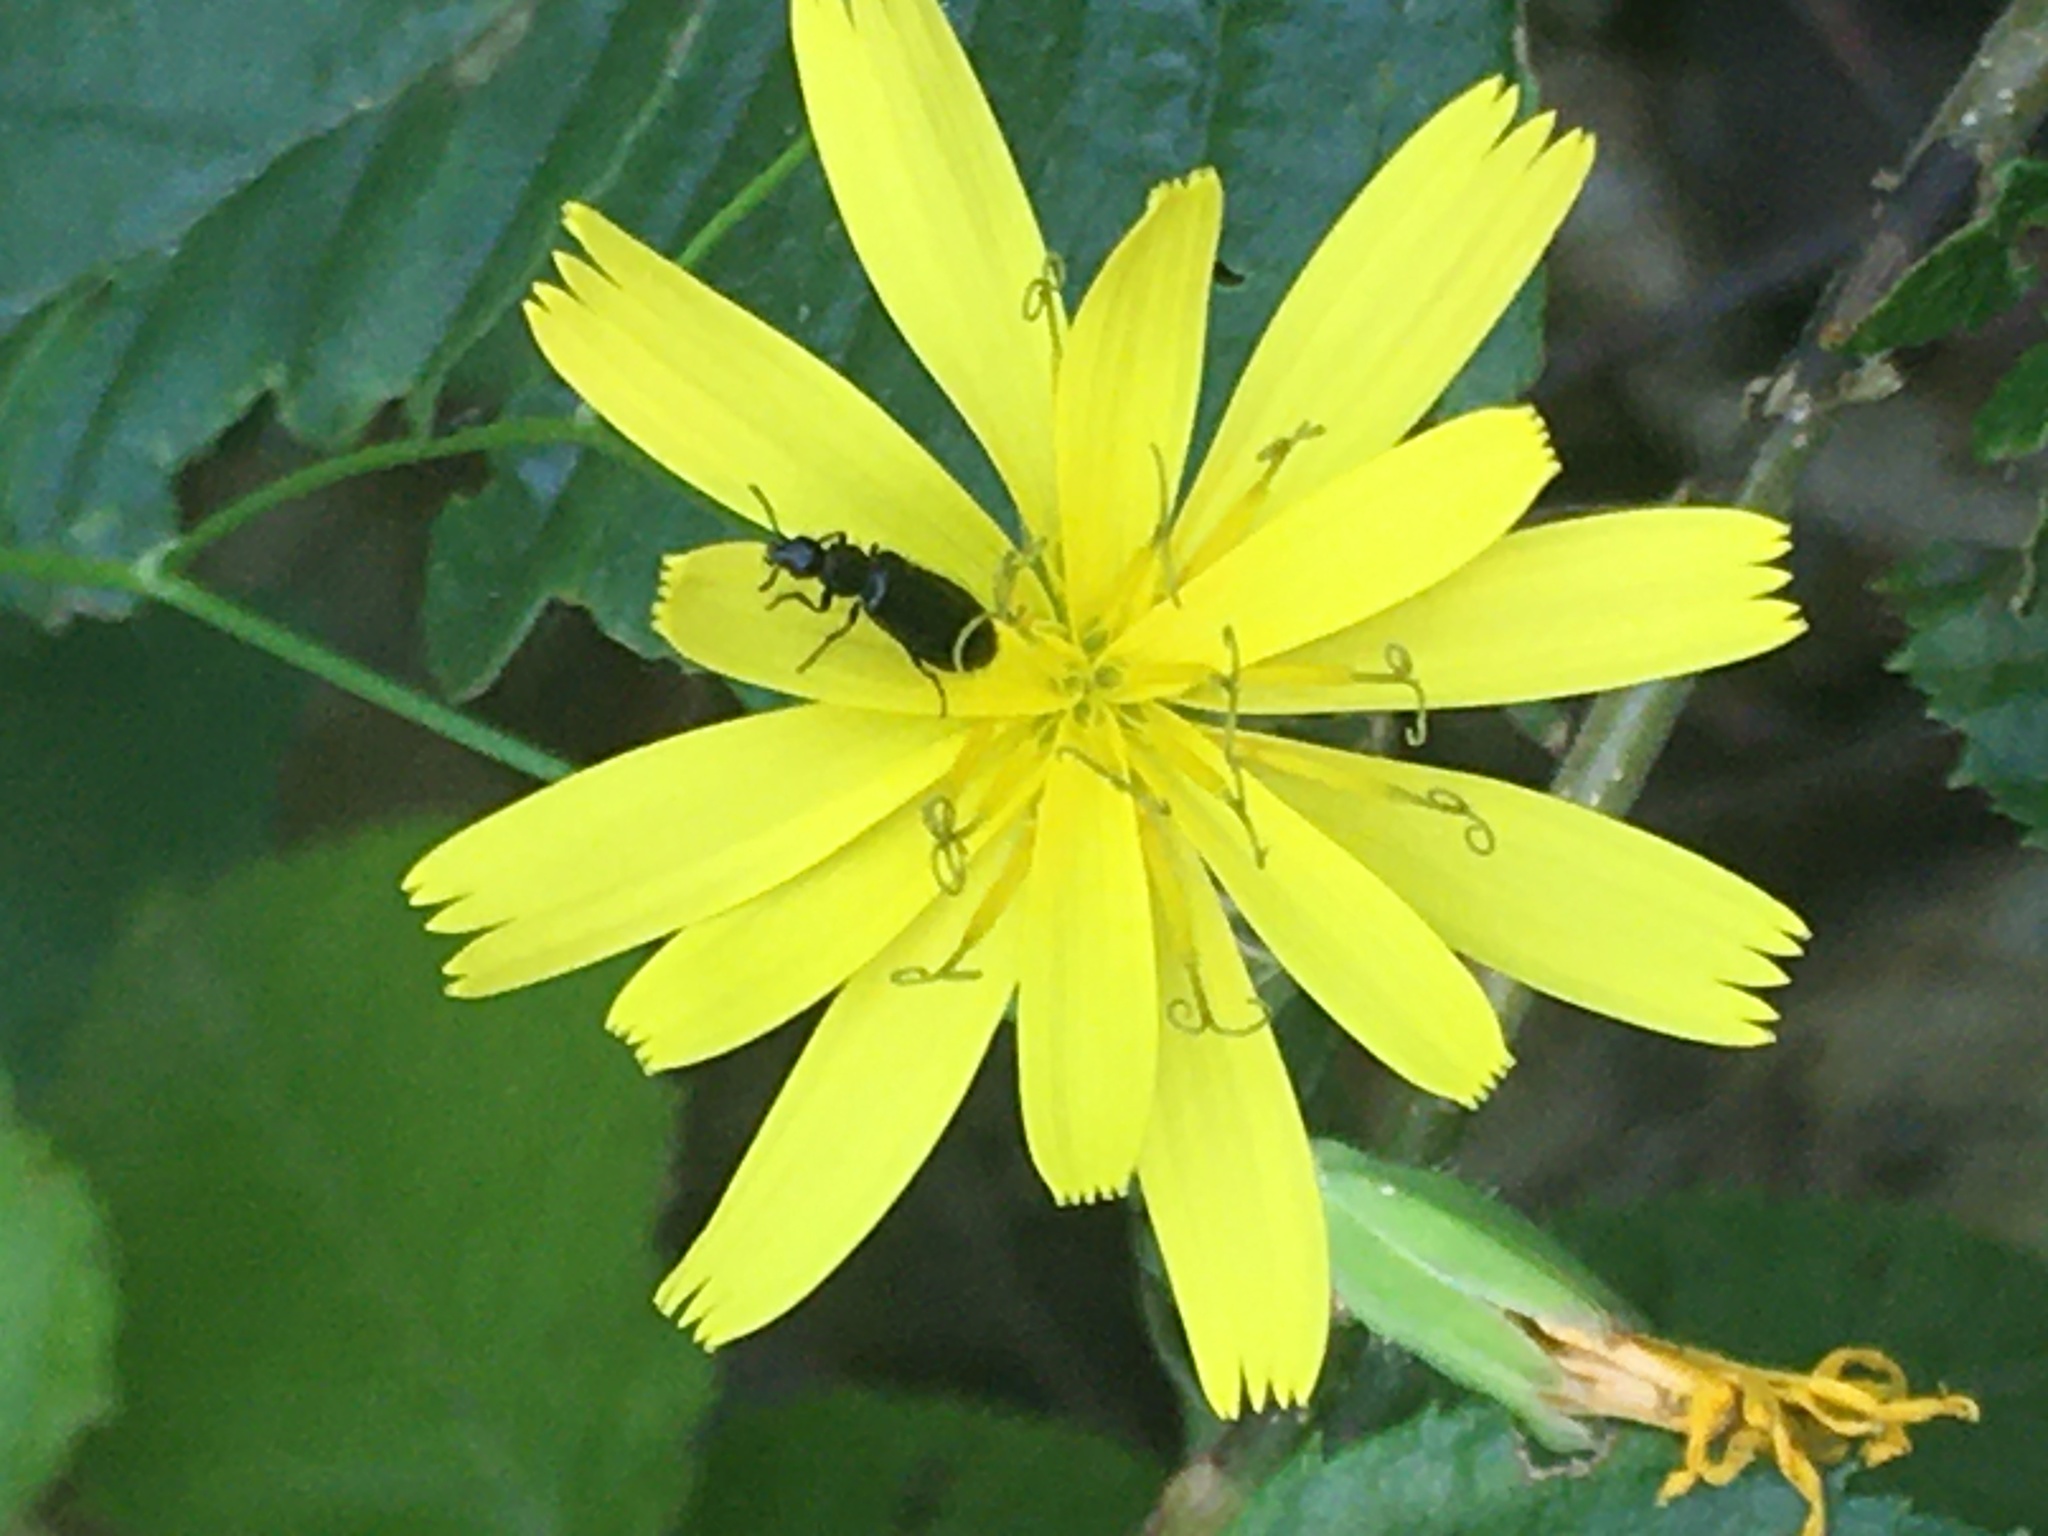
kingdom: Plantae
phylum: Tracheophyta
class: Magnoliopsida
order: Asterales
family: Asteraceae
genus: Lapsana
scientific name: Lapsana communis
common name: Nipplewort
